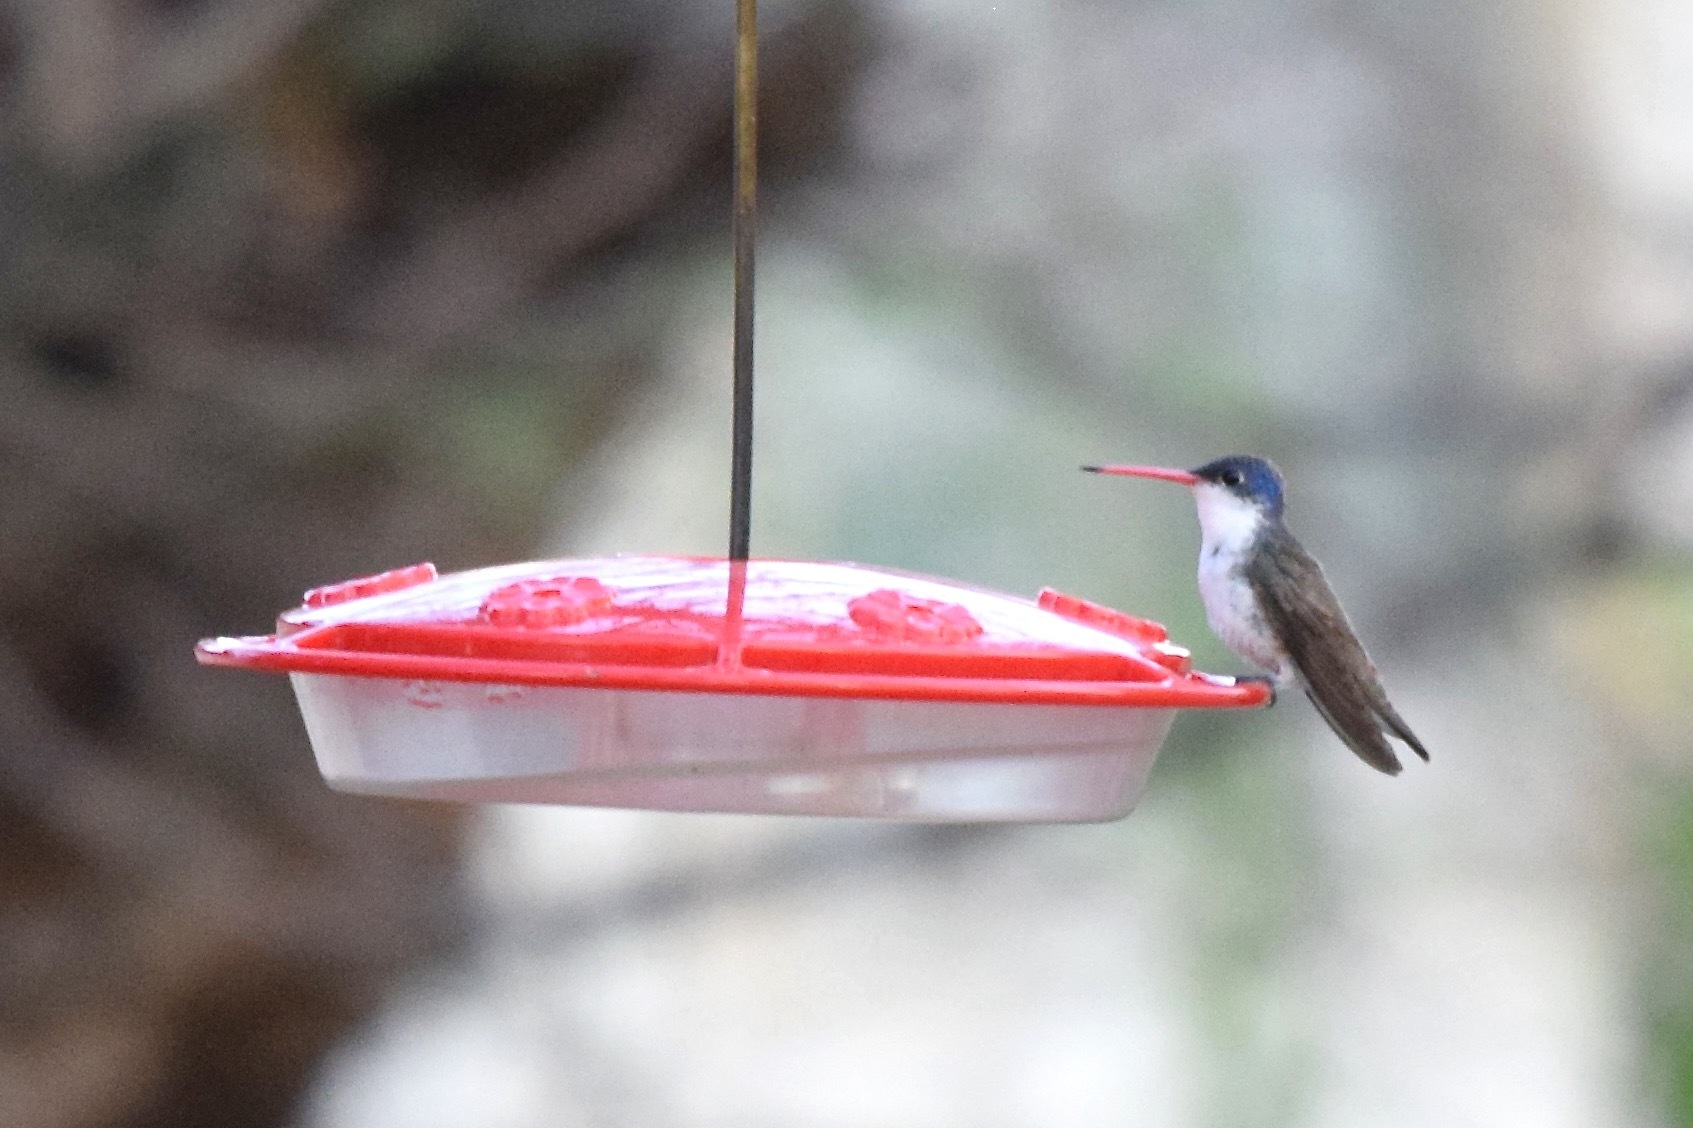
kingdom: Animalia
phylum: Chordata
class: Aves
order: Apodiformes
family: Trochilidae
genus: Leucolia
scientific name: Leucolia violiceps
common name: Violet-crowned hummingbird
